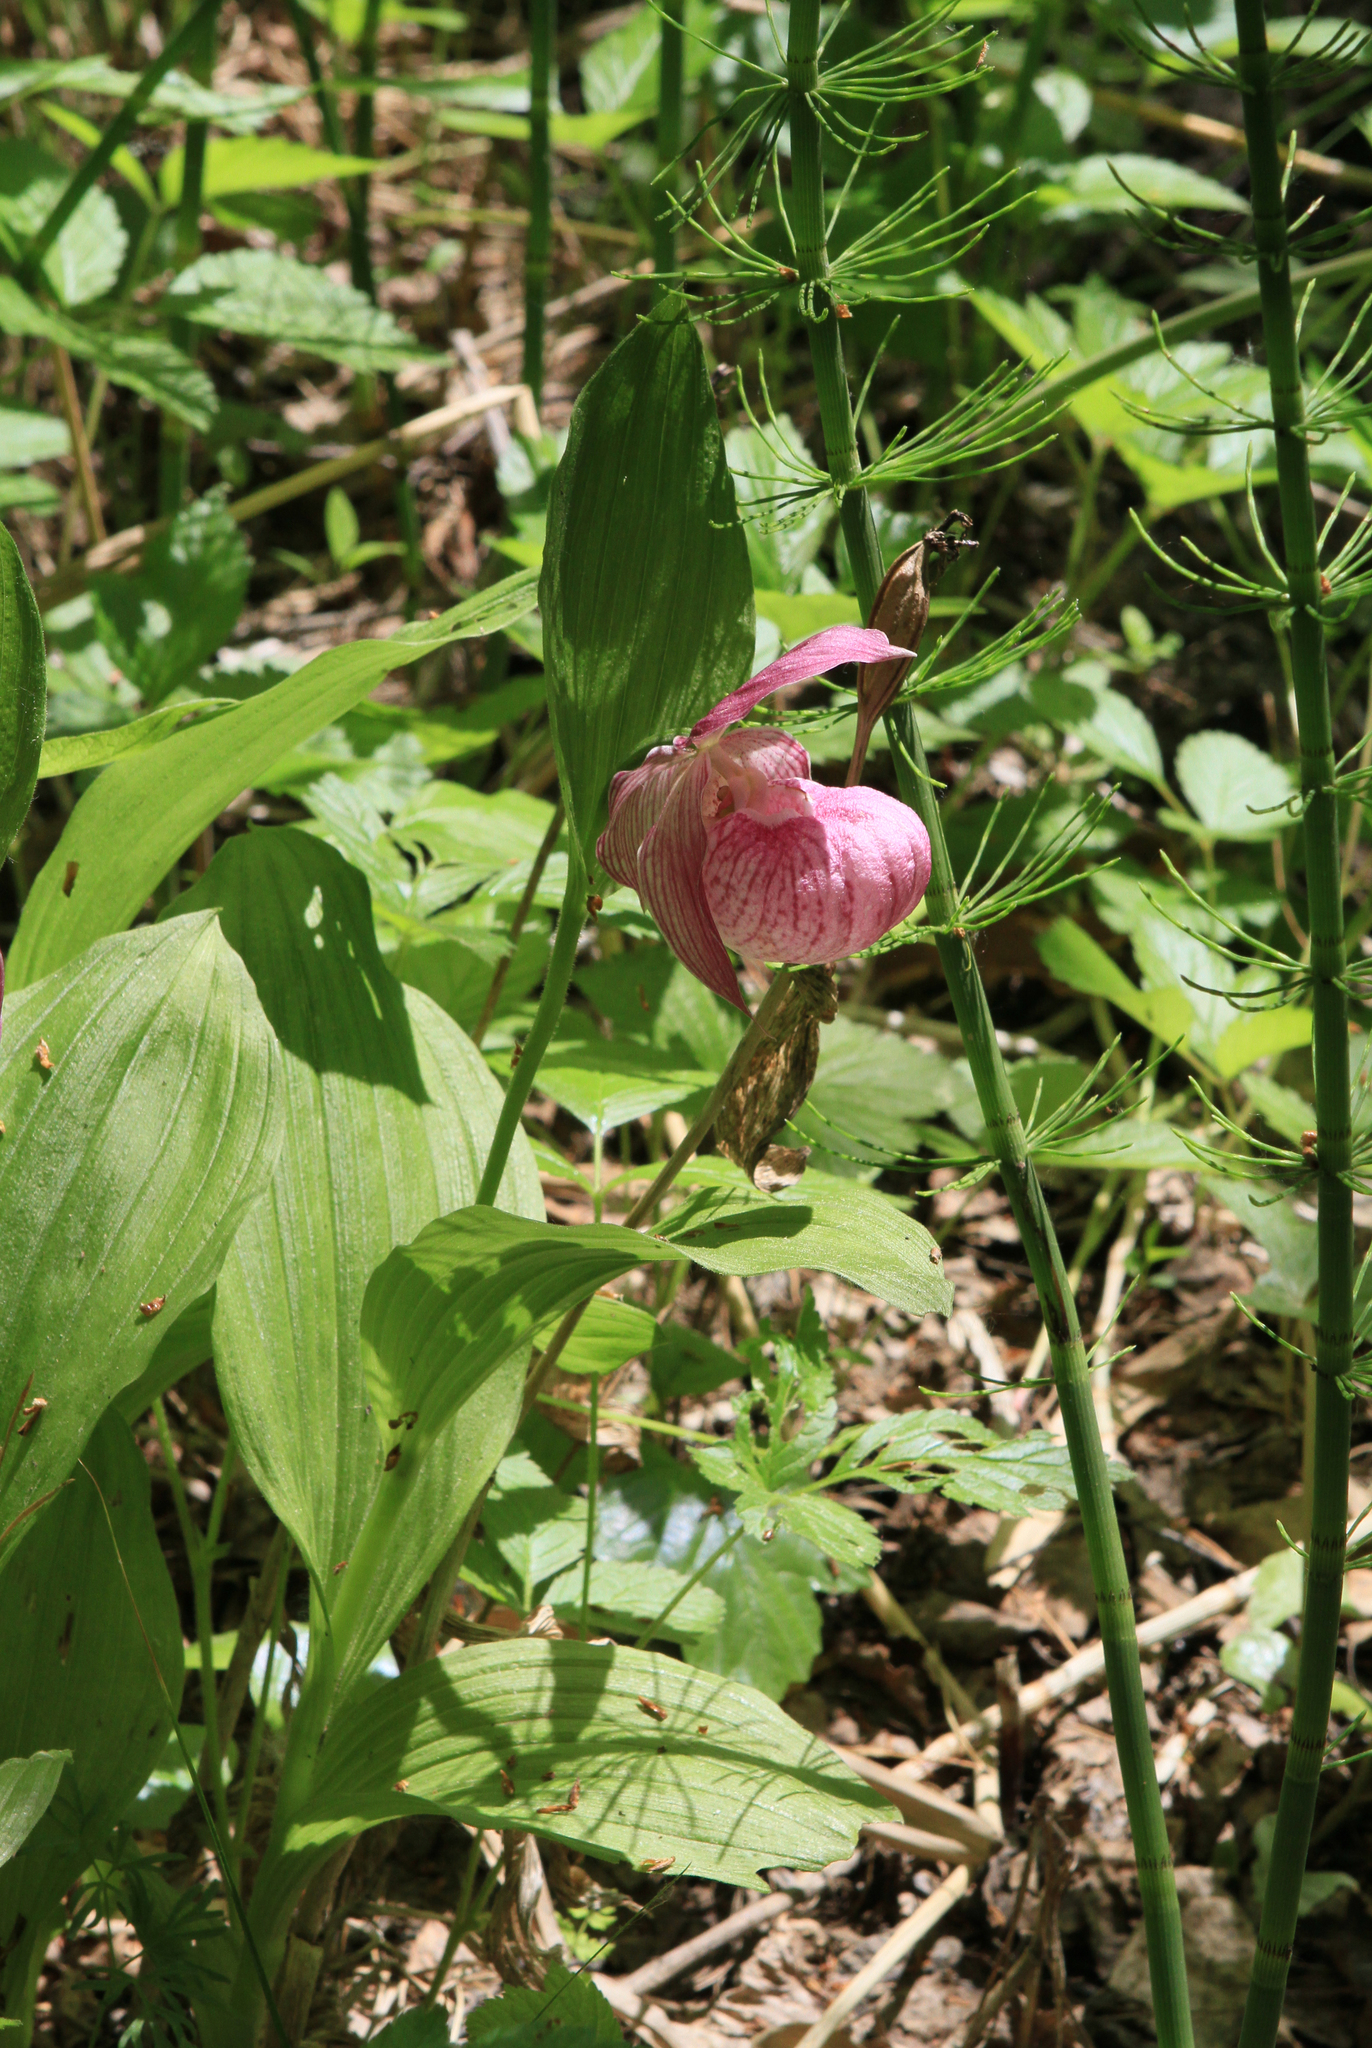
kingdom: Plantae
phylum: Tracheophyta
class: Liliopsida
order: Asparagales
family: Orchidaceae
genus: Cypripedium
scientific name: Cypripedium macranthos
